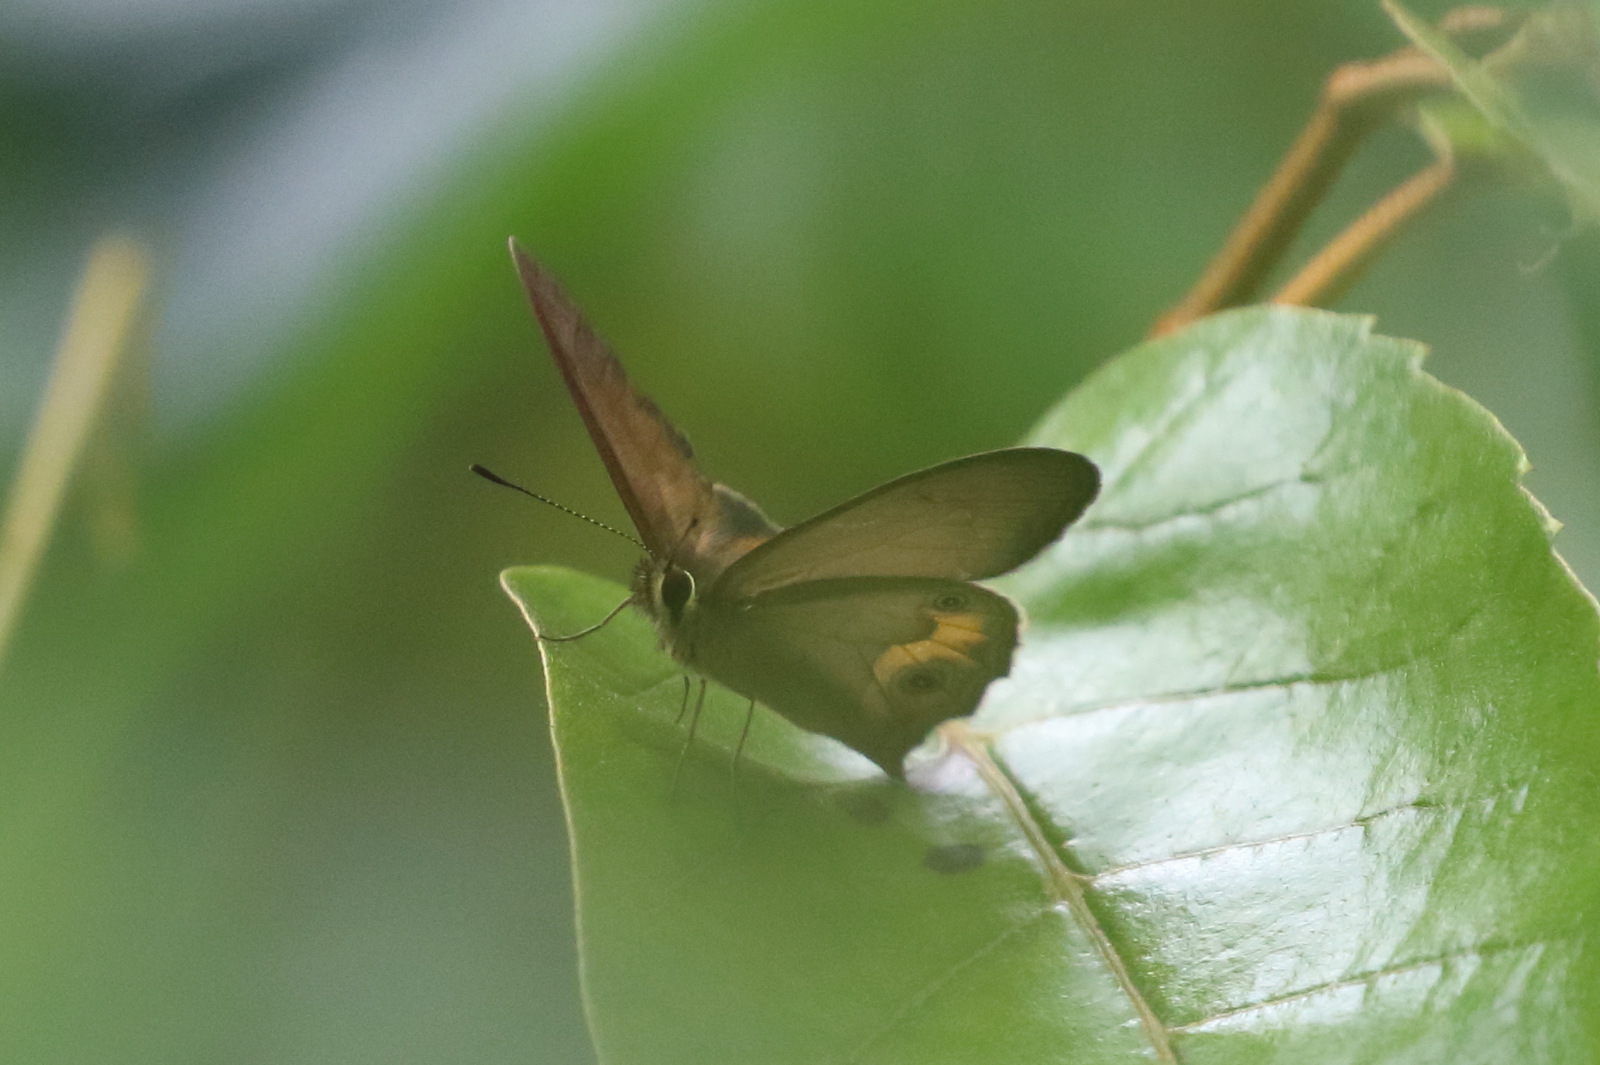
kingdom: Animalia
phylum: Arthropoda
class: Insecta
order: Lepidoptera
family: Nymphalidae
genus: Hypocysta
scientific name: Hypocysta metirius
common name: Brown ringlet
